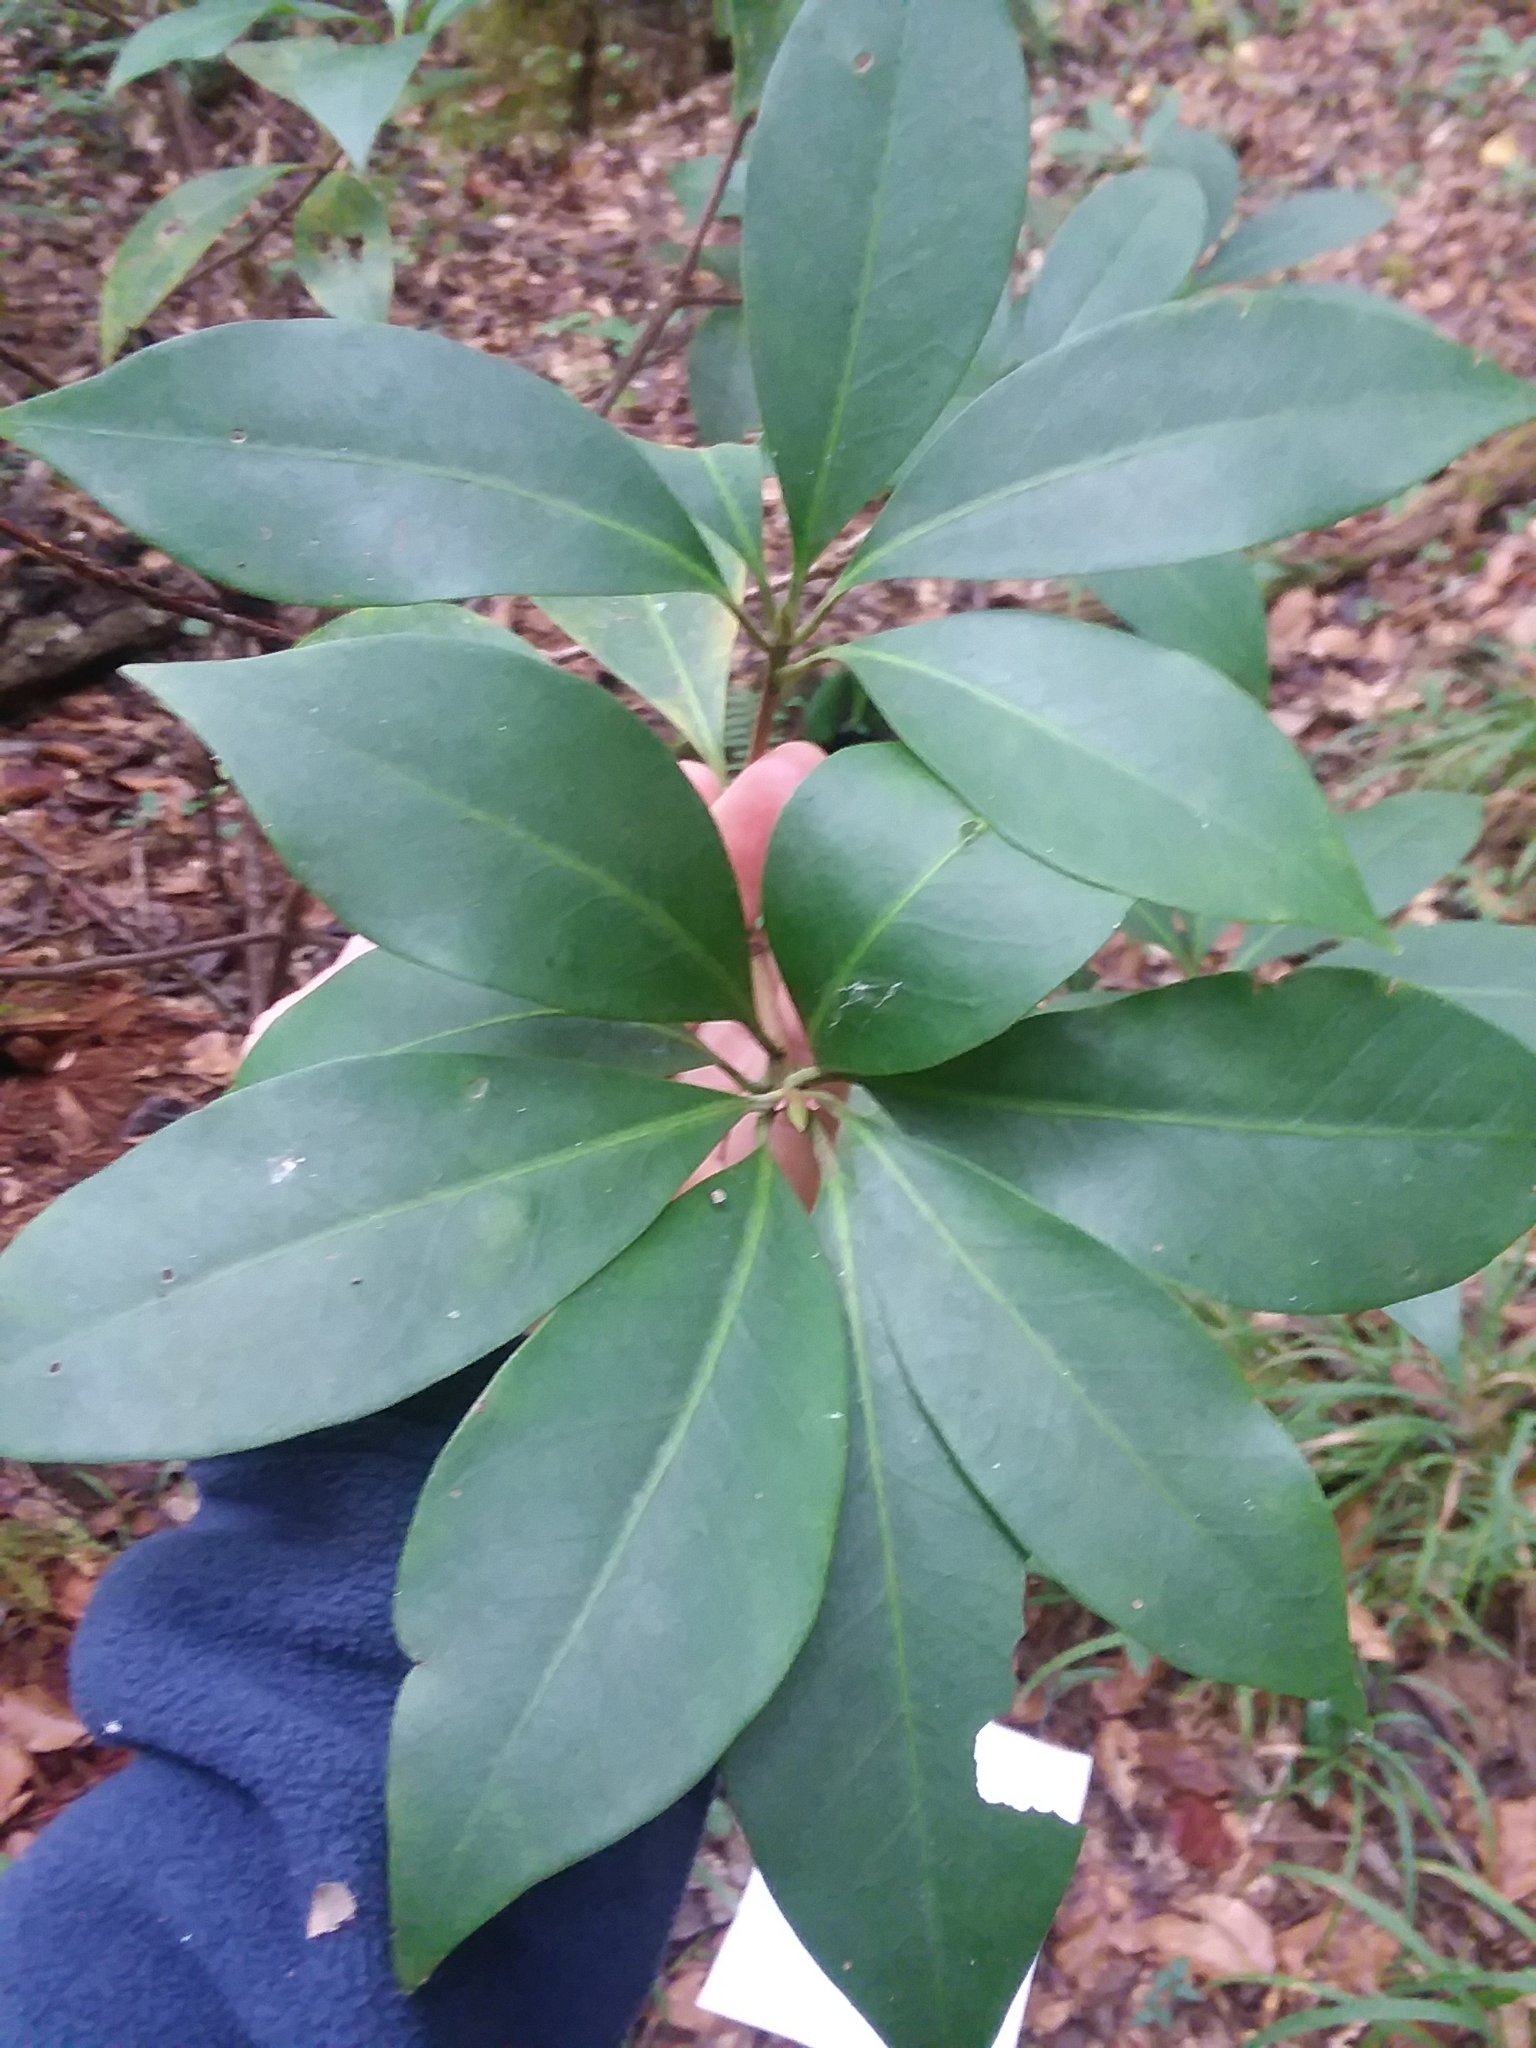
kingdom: Plantae
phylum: Tracheophyta
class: Magnoliopsida
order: Austrobaileyales
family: Schisandraceae
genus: Illicium
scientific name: Illicium floridanum
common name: Florida anisetree
